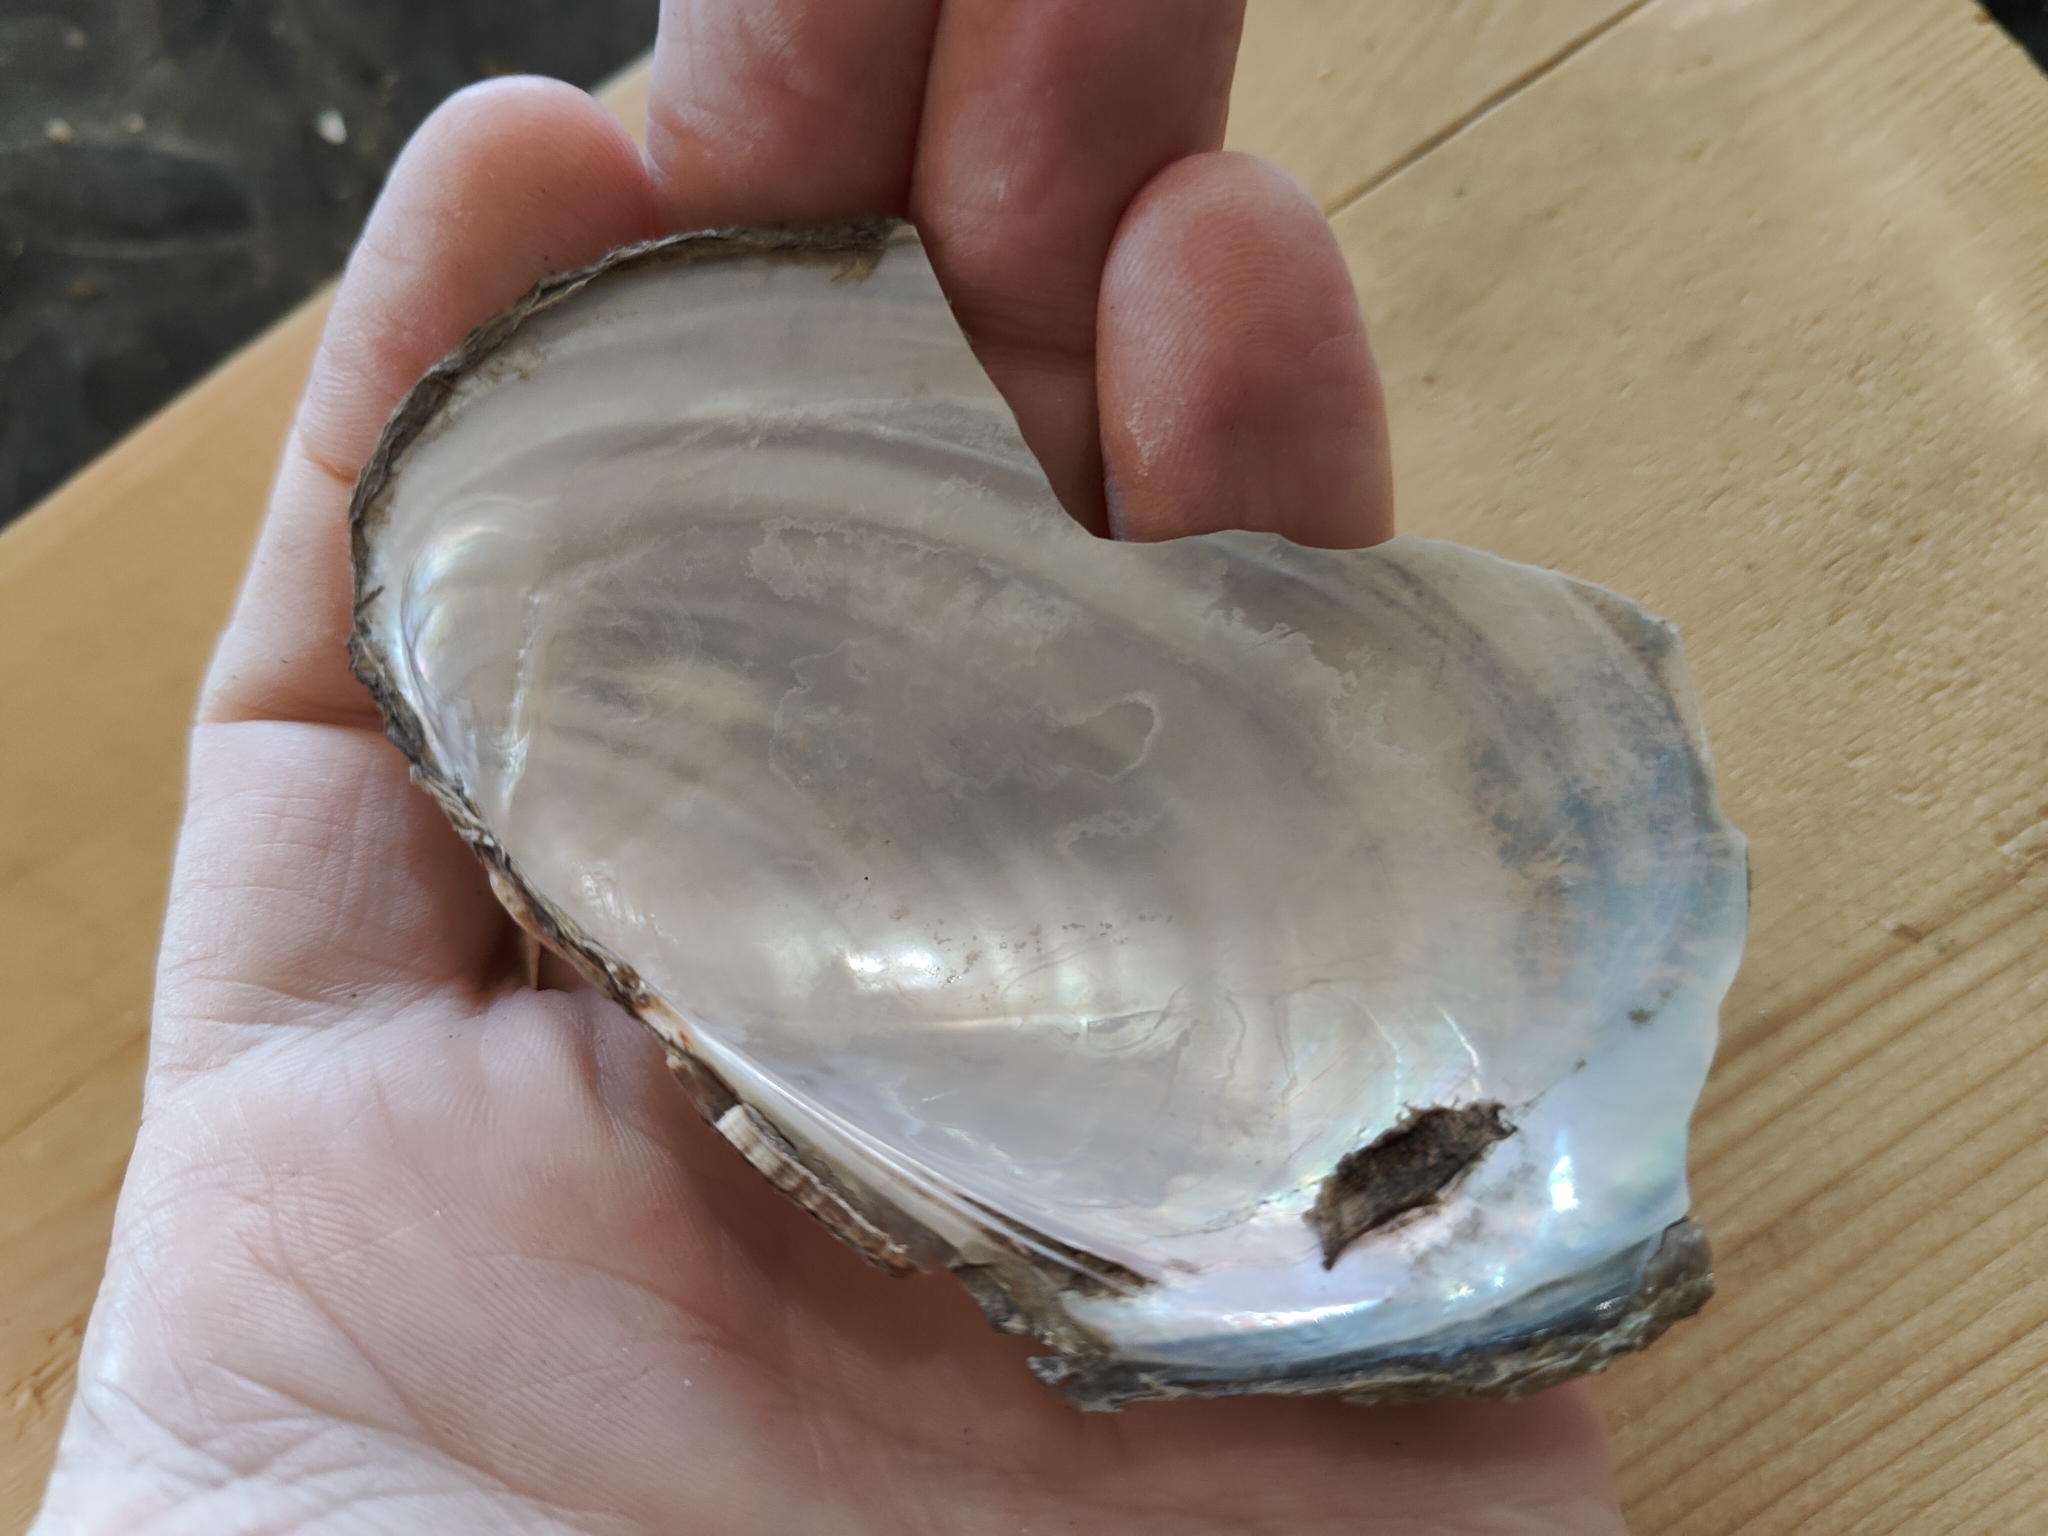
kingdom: Animalia
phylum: Mollusca
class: Bivalvia
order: Unionida
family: Unionidae
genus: Potamilus
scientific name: Potamilus fragilis
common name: Fragile papershell
